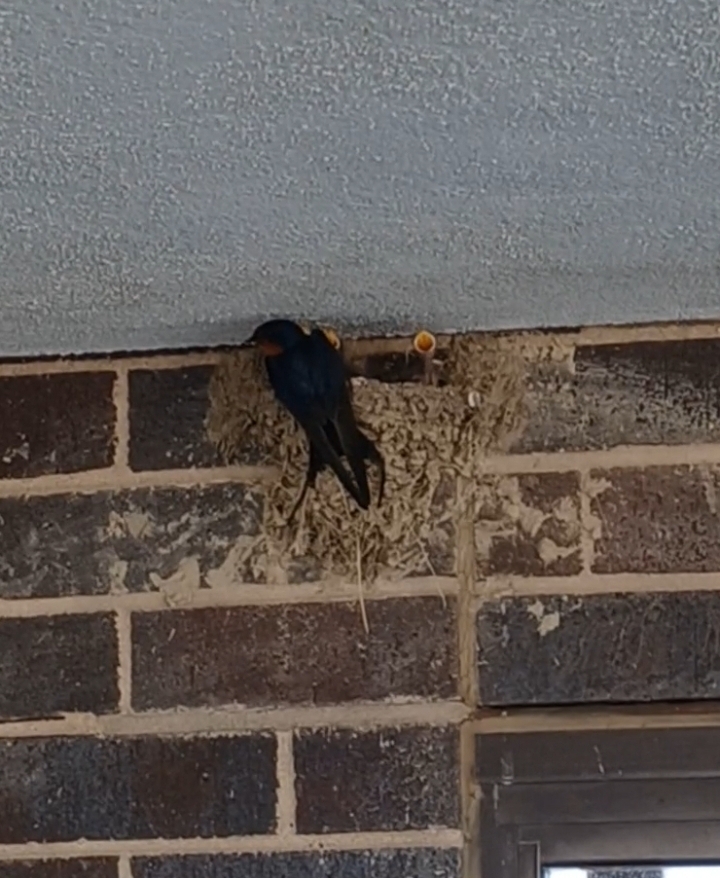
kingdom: Animalia
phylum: Chordata
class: Aves
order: Passeriformes
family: Hirundinidae
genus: Hirundo
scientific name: Hirundo rustica
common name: Barn swallow
